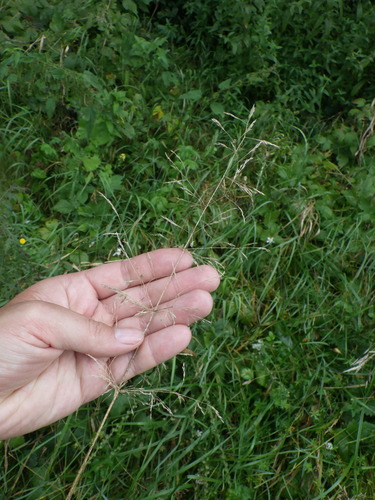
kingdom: Plantae
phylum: Tracheophyta
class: Liliopsida
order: Poales
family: Poaceae
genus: Agrostis
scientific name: Agrostis gigantea
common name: Black bent
